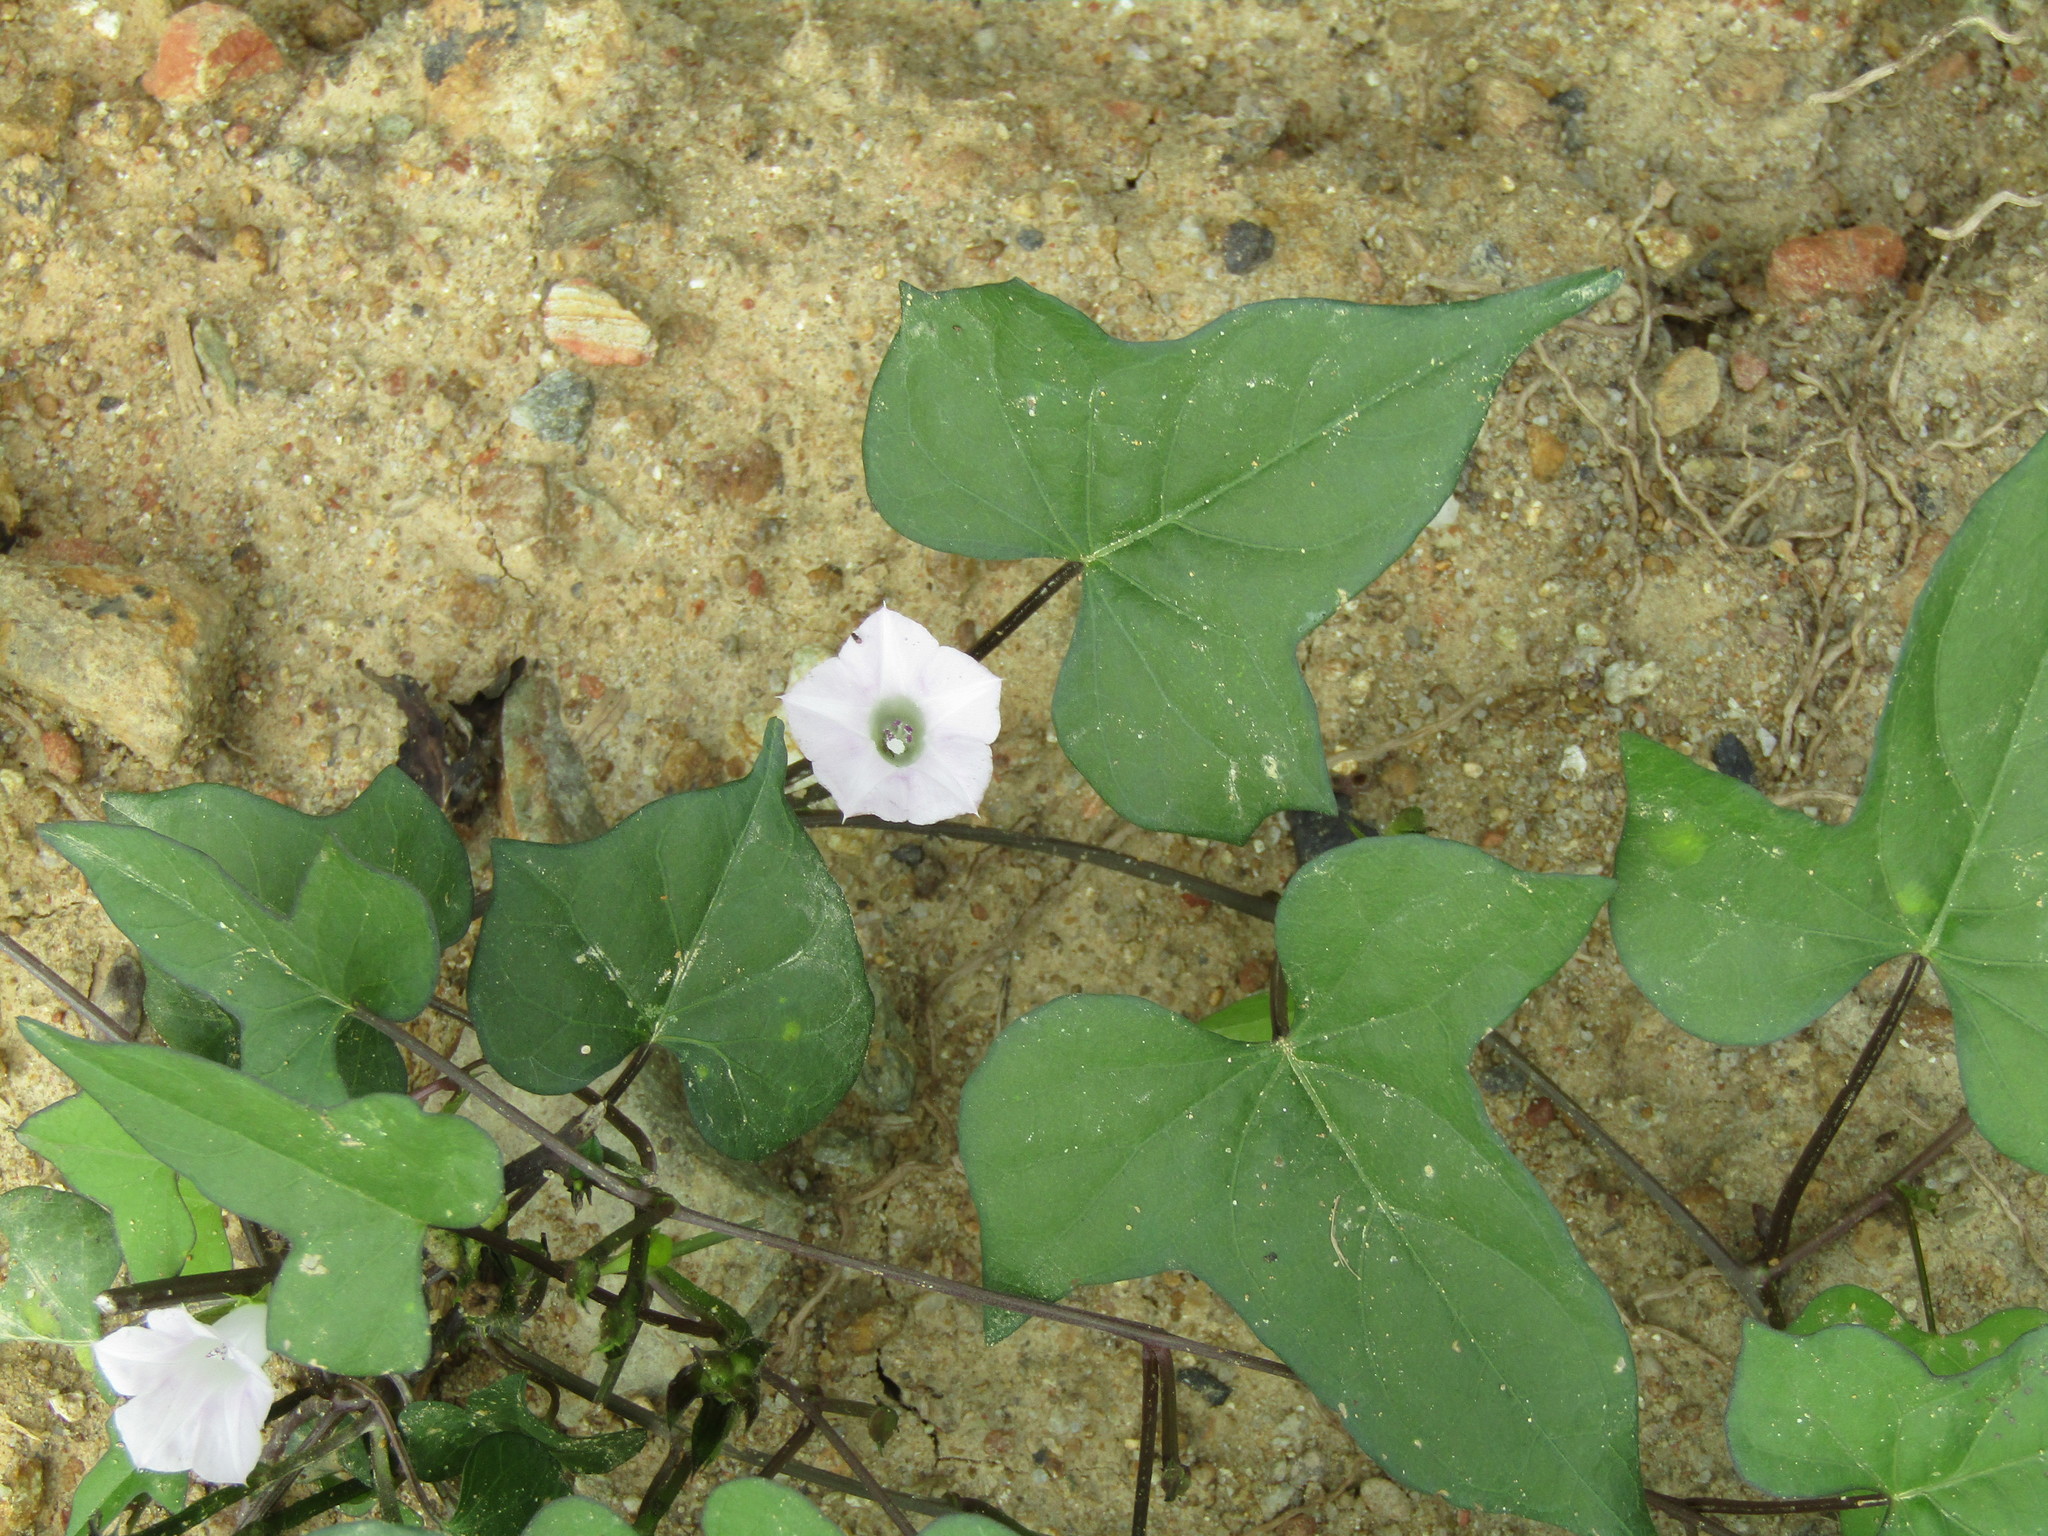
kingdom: Plantae
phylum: Tracheophyta
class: Magnoliopsida
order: Solanales
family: Convolvulaceae
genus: Ipomoea
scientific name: Ipomoea lacunosa
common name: White morning-glory
